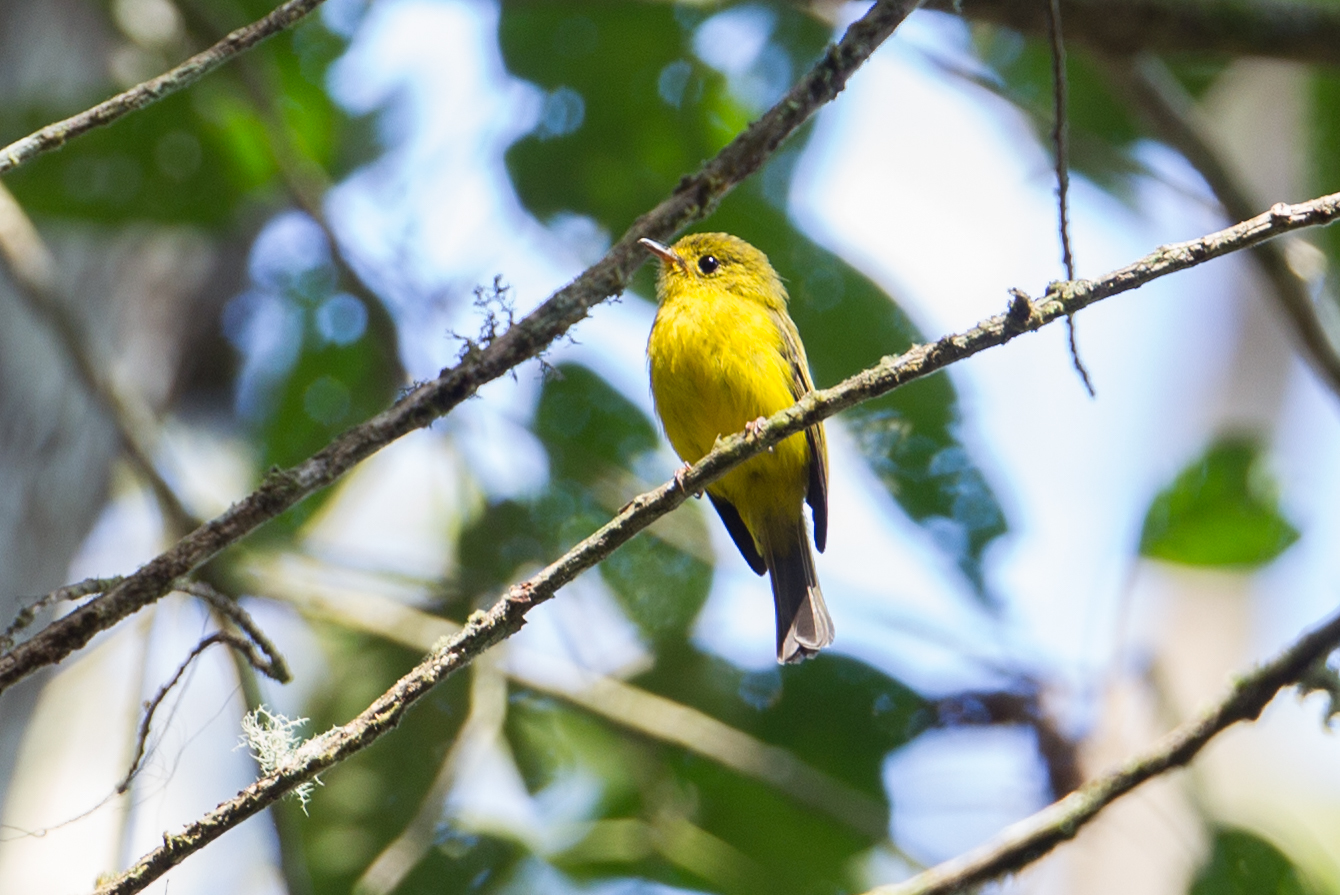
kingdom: Animalia
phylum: Chordata
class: Aves
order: Passeriformes
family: Stenostiridae
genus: Culicicapa
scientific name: Culicicapa helianthea
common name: Citrine canary-flycatcher
